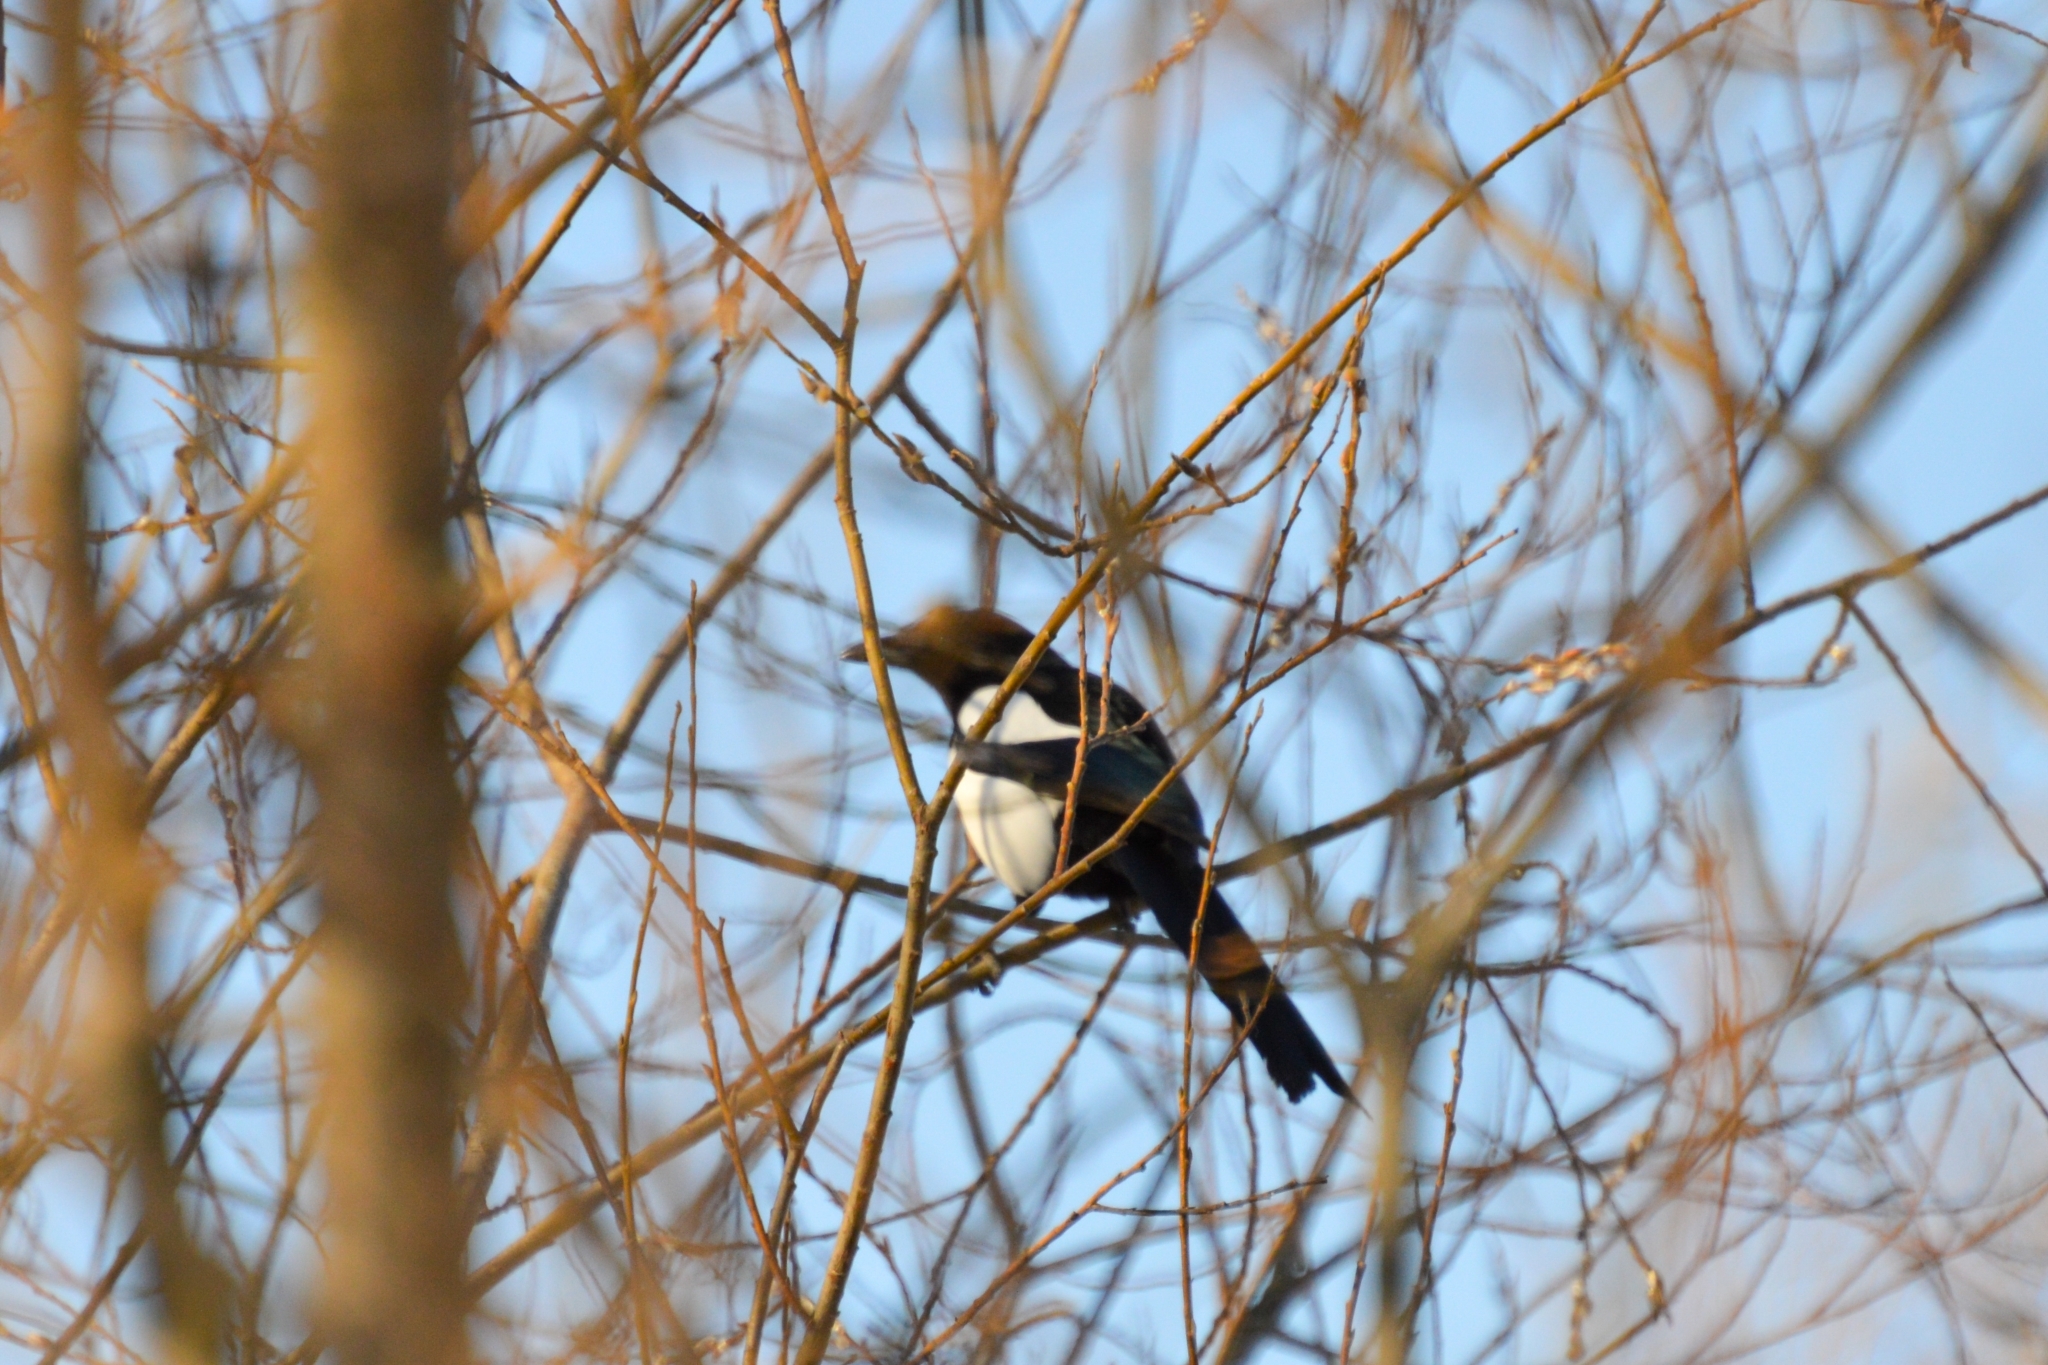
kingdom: Animalia
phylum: Chordata
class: Aves
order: Passeriformes
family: Corvidae
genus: Pica
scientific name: Pica pica
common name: Eurasian magpie
